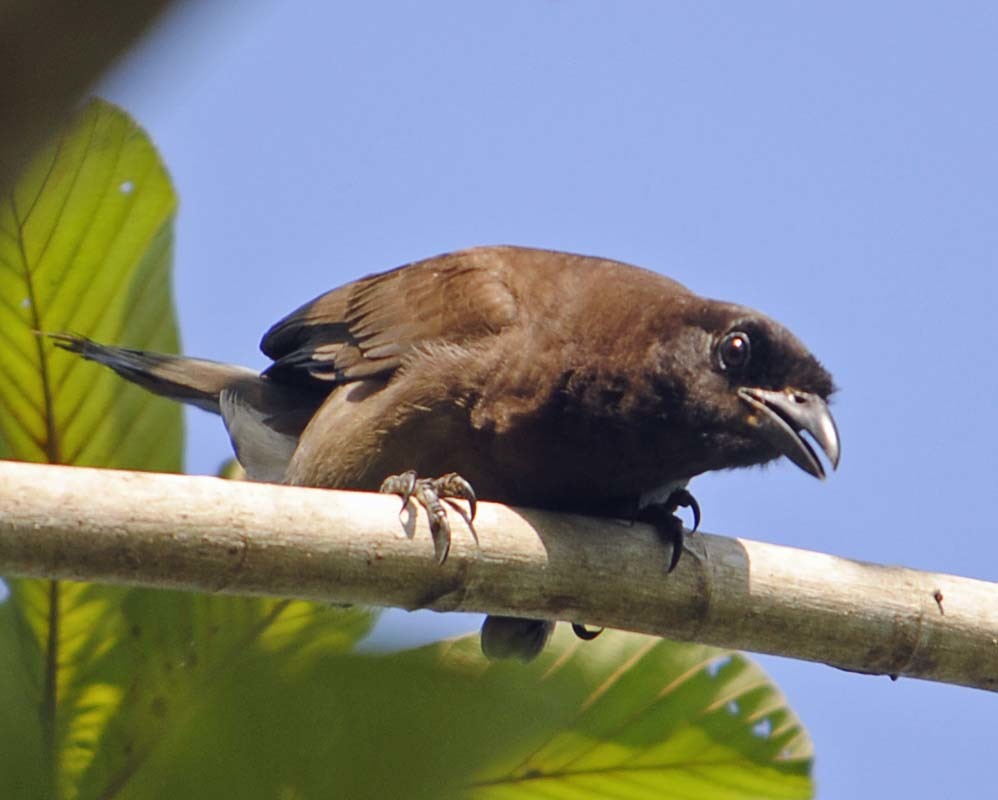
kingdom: Animalia
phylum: Chordata
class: Aves
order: Passeriformes
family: Corvidae
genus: Psilorhinus
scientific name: Psilorhinus morio
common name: Brown jay
